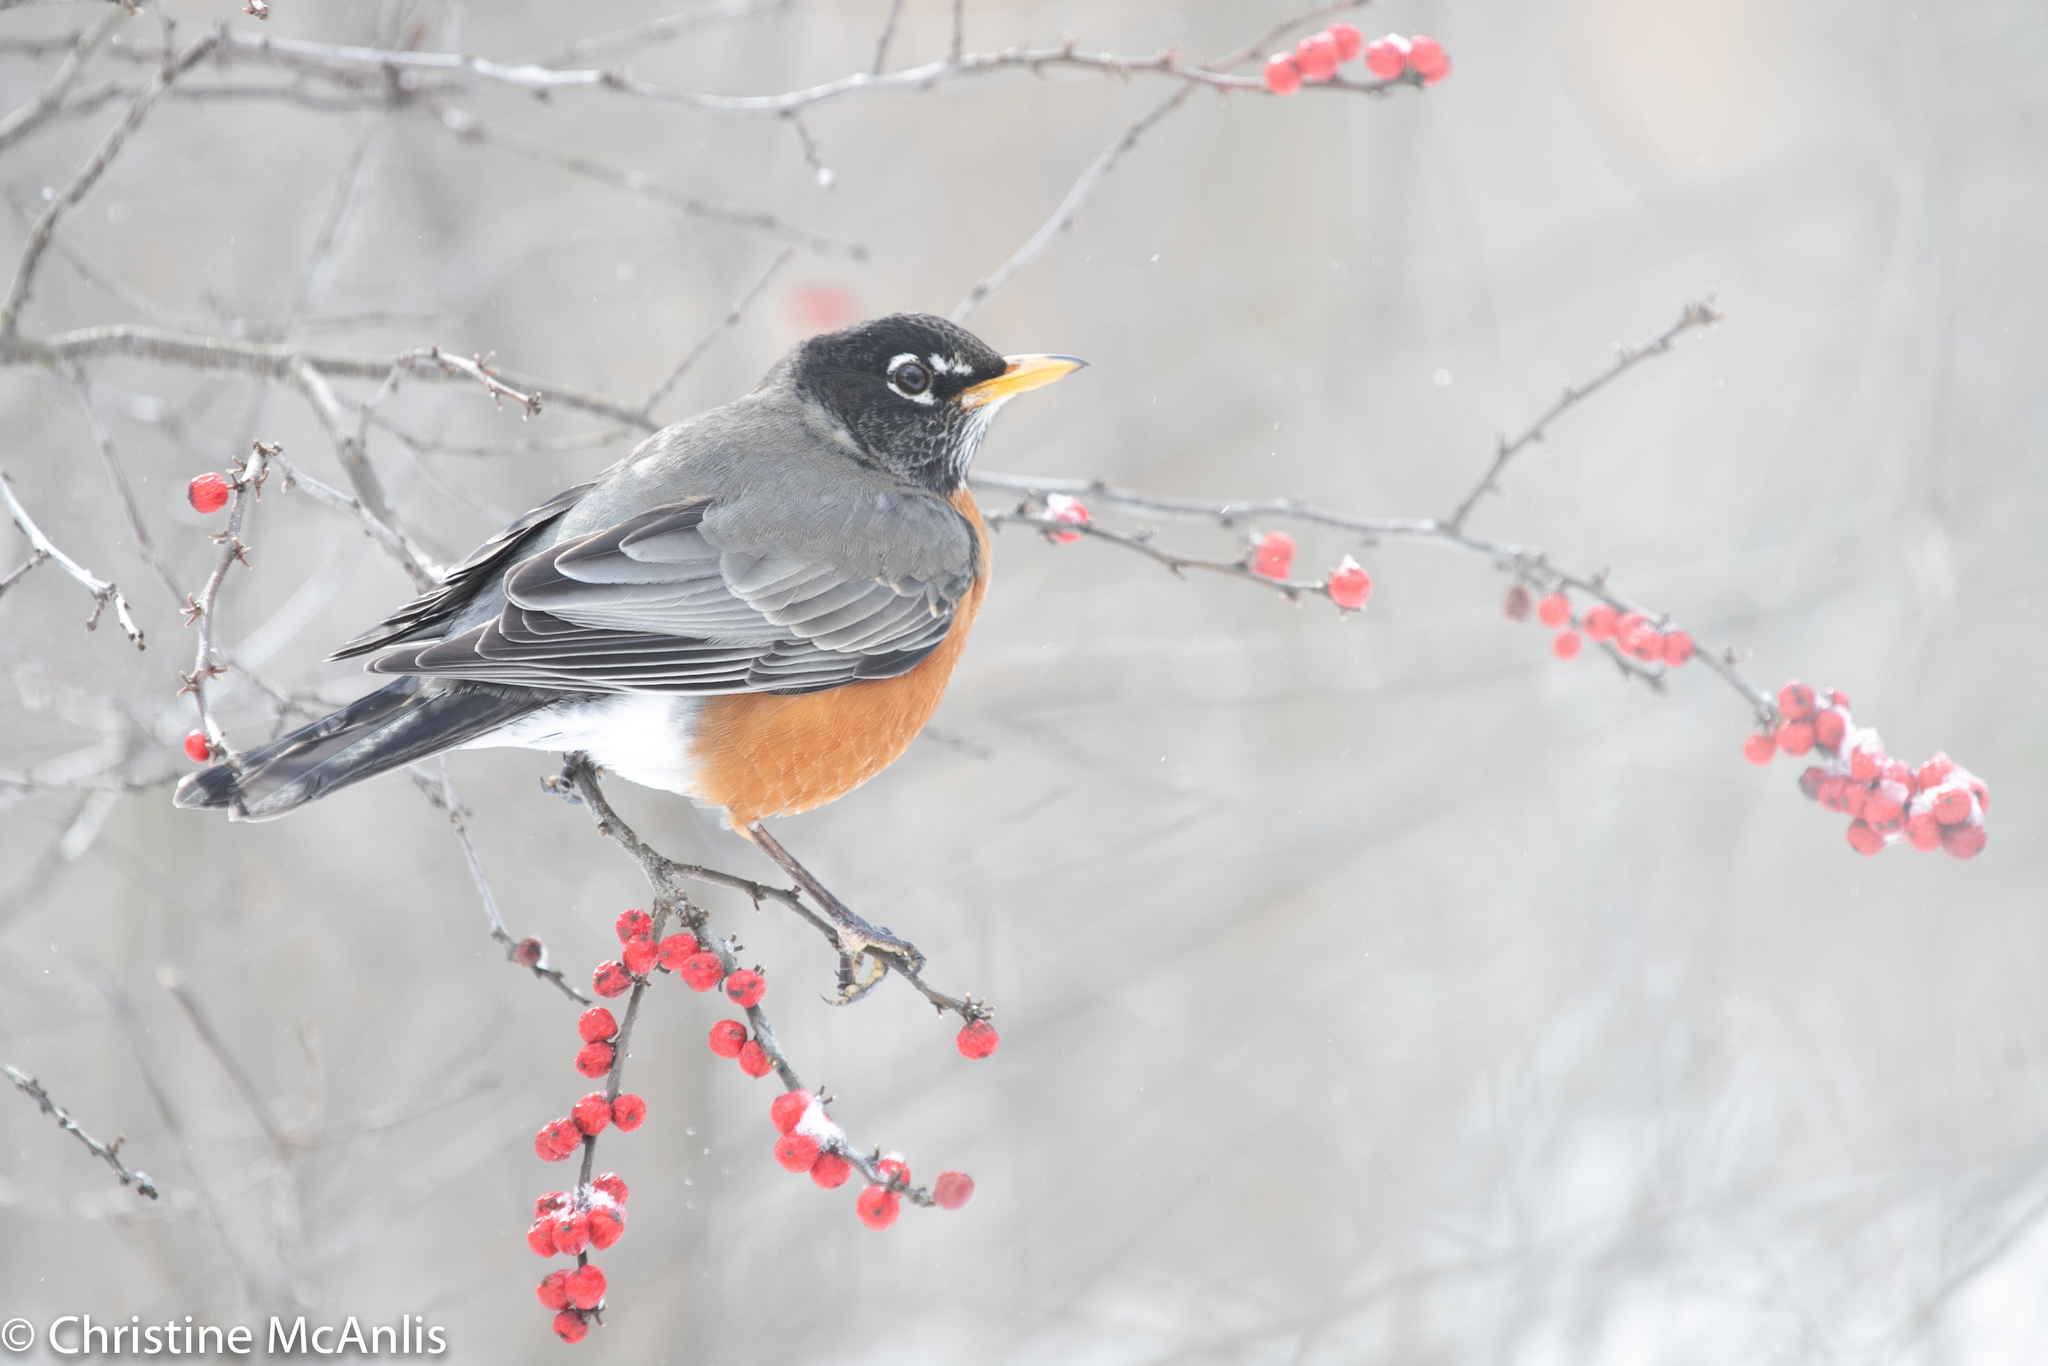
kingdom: Animalia
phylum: Chordata
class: Aves
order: Passeriformes
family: Turdidae
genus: Turdus
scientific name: Turdus migratorius
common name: American robin
